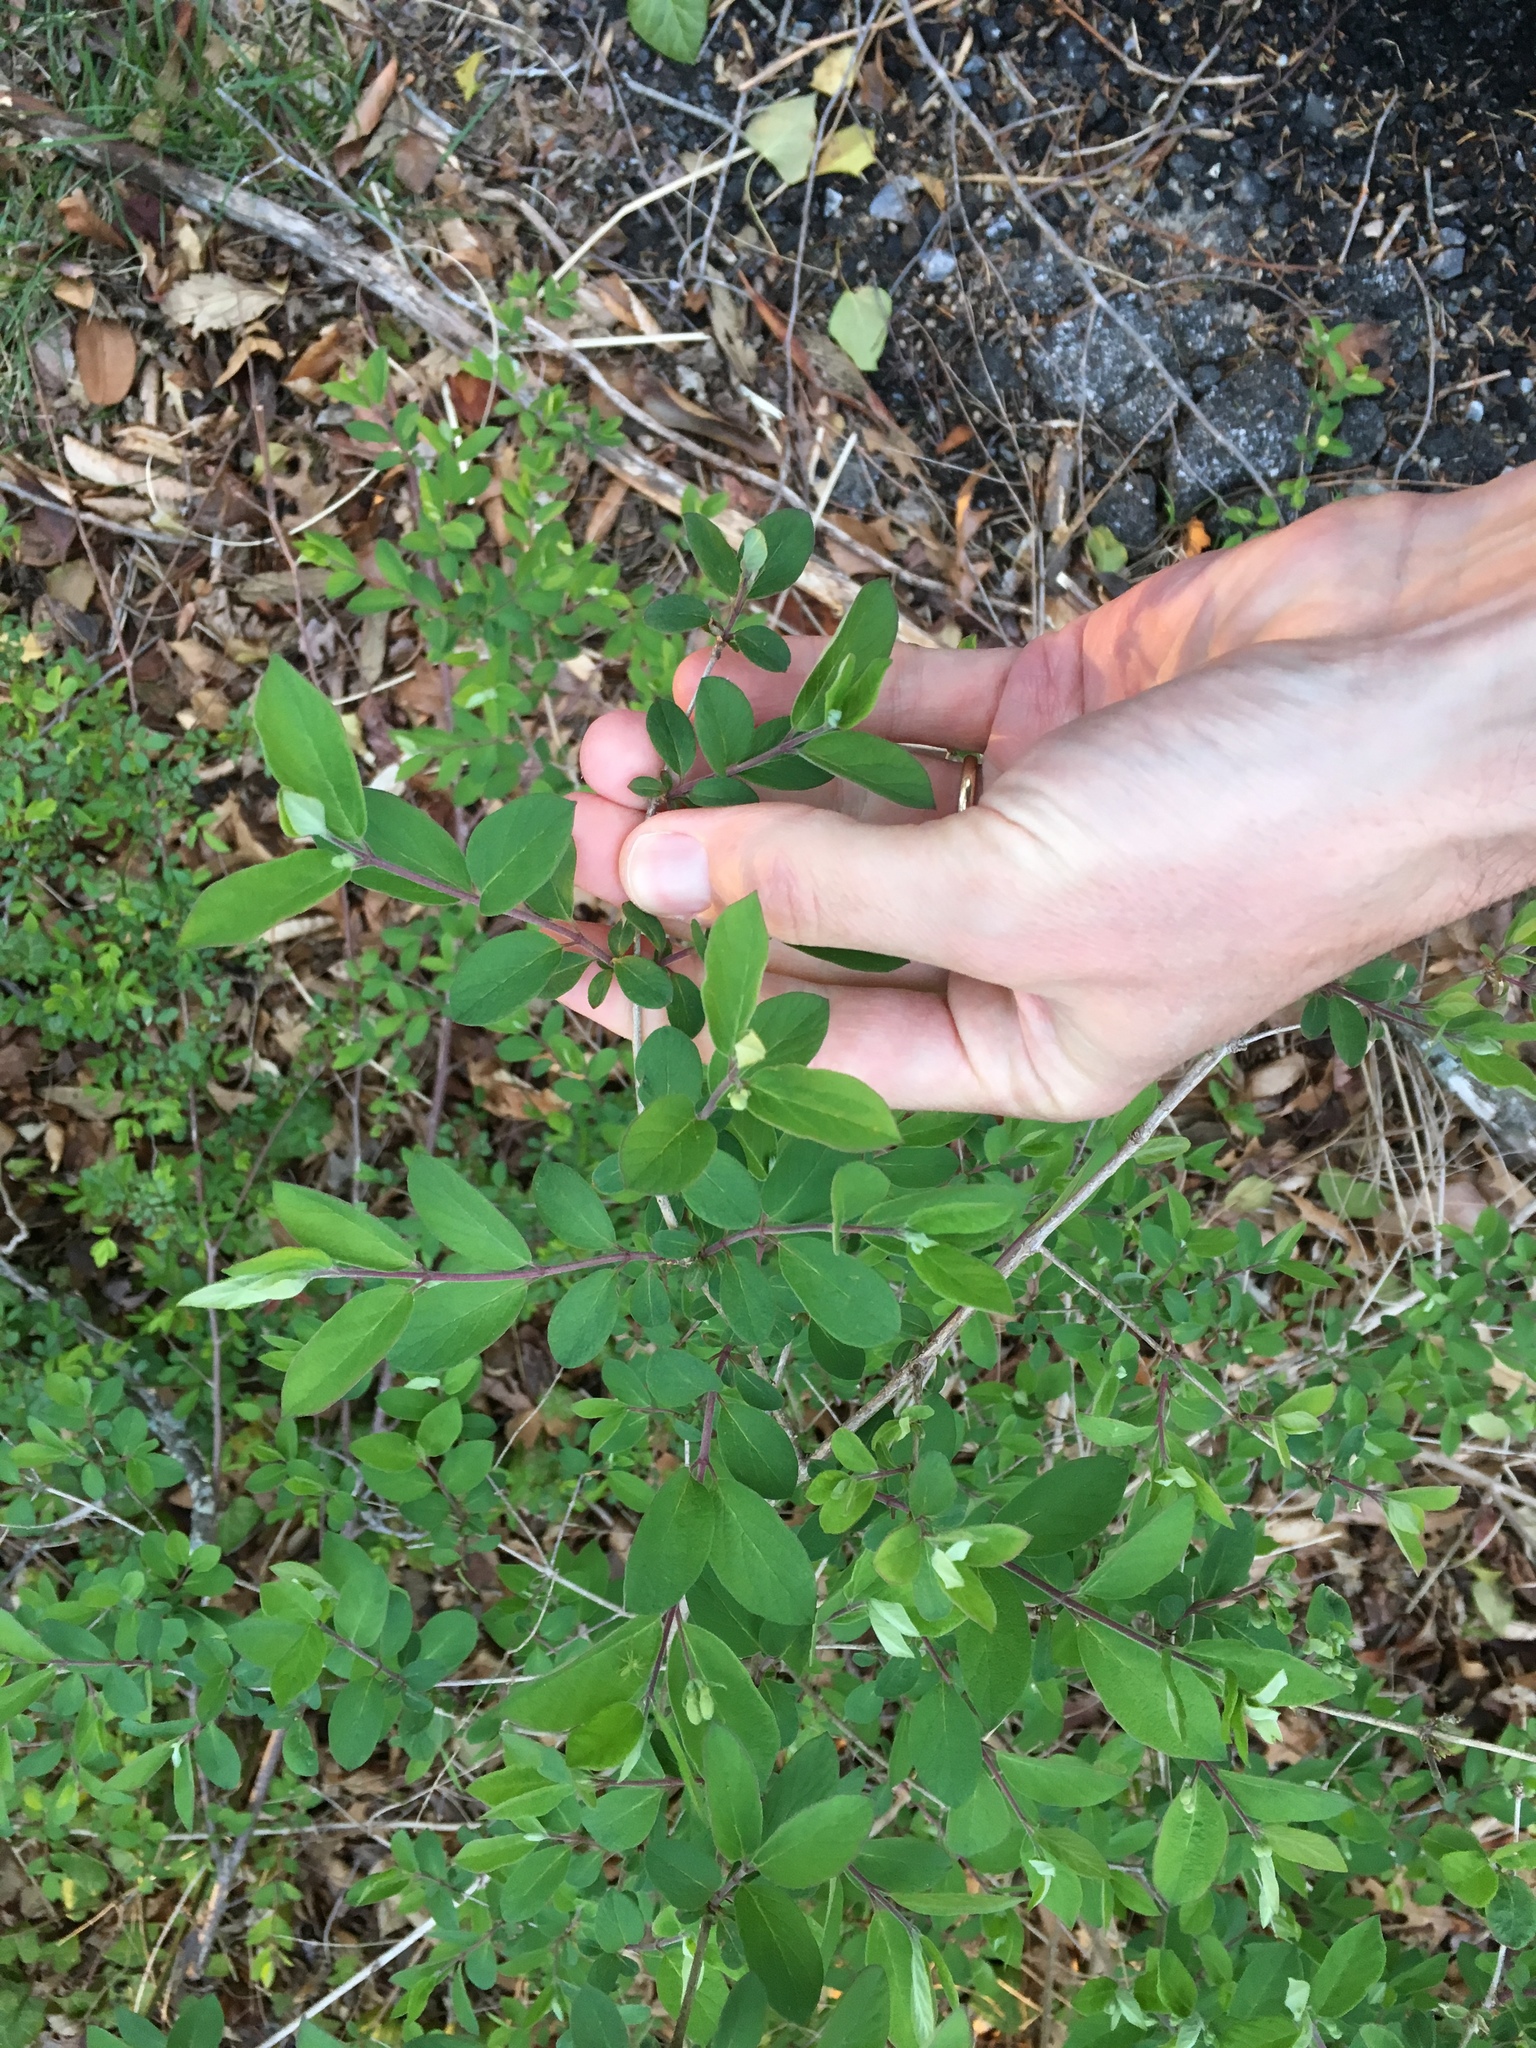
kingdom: Plantae
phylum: Tracheophyta
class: Magnoliopsida
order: Dipsacales
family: Caprifoliaceae
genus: Lonicera
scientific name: Lonicera morrowii
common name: Morrow's honeysuckle
